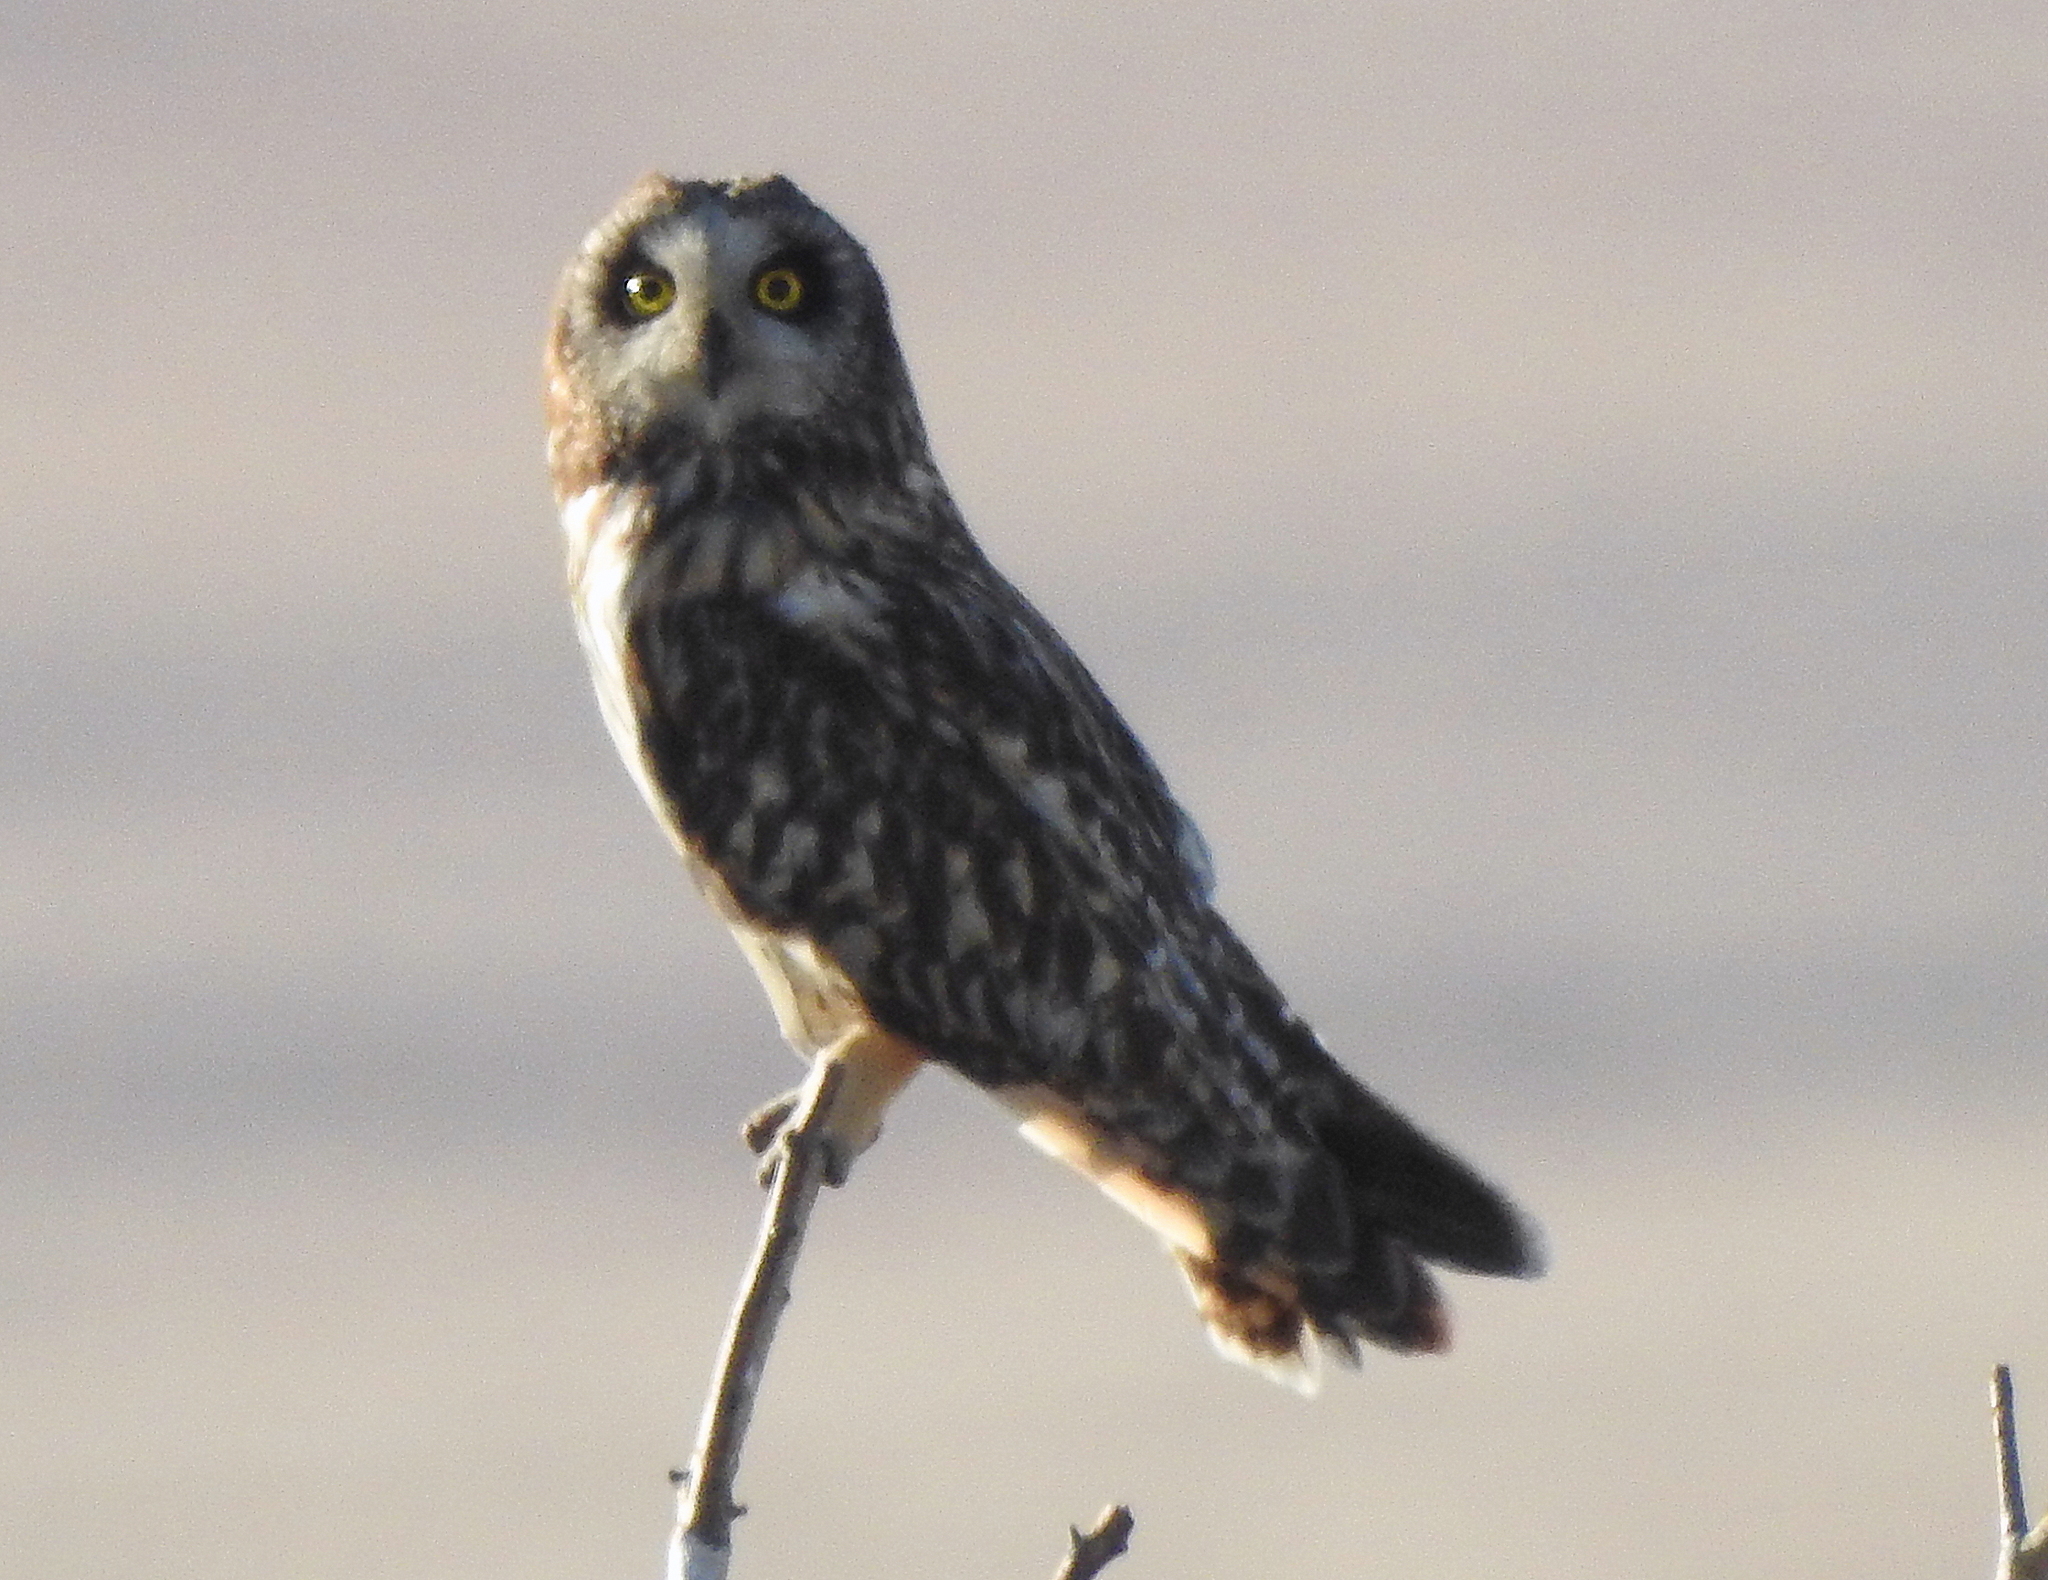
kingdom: Animalia
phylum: Chordata
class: Aves
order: Strigiformes
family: Strigidae
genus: Asio
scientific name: Asio flammeus
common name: Short-eared owl
